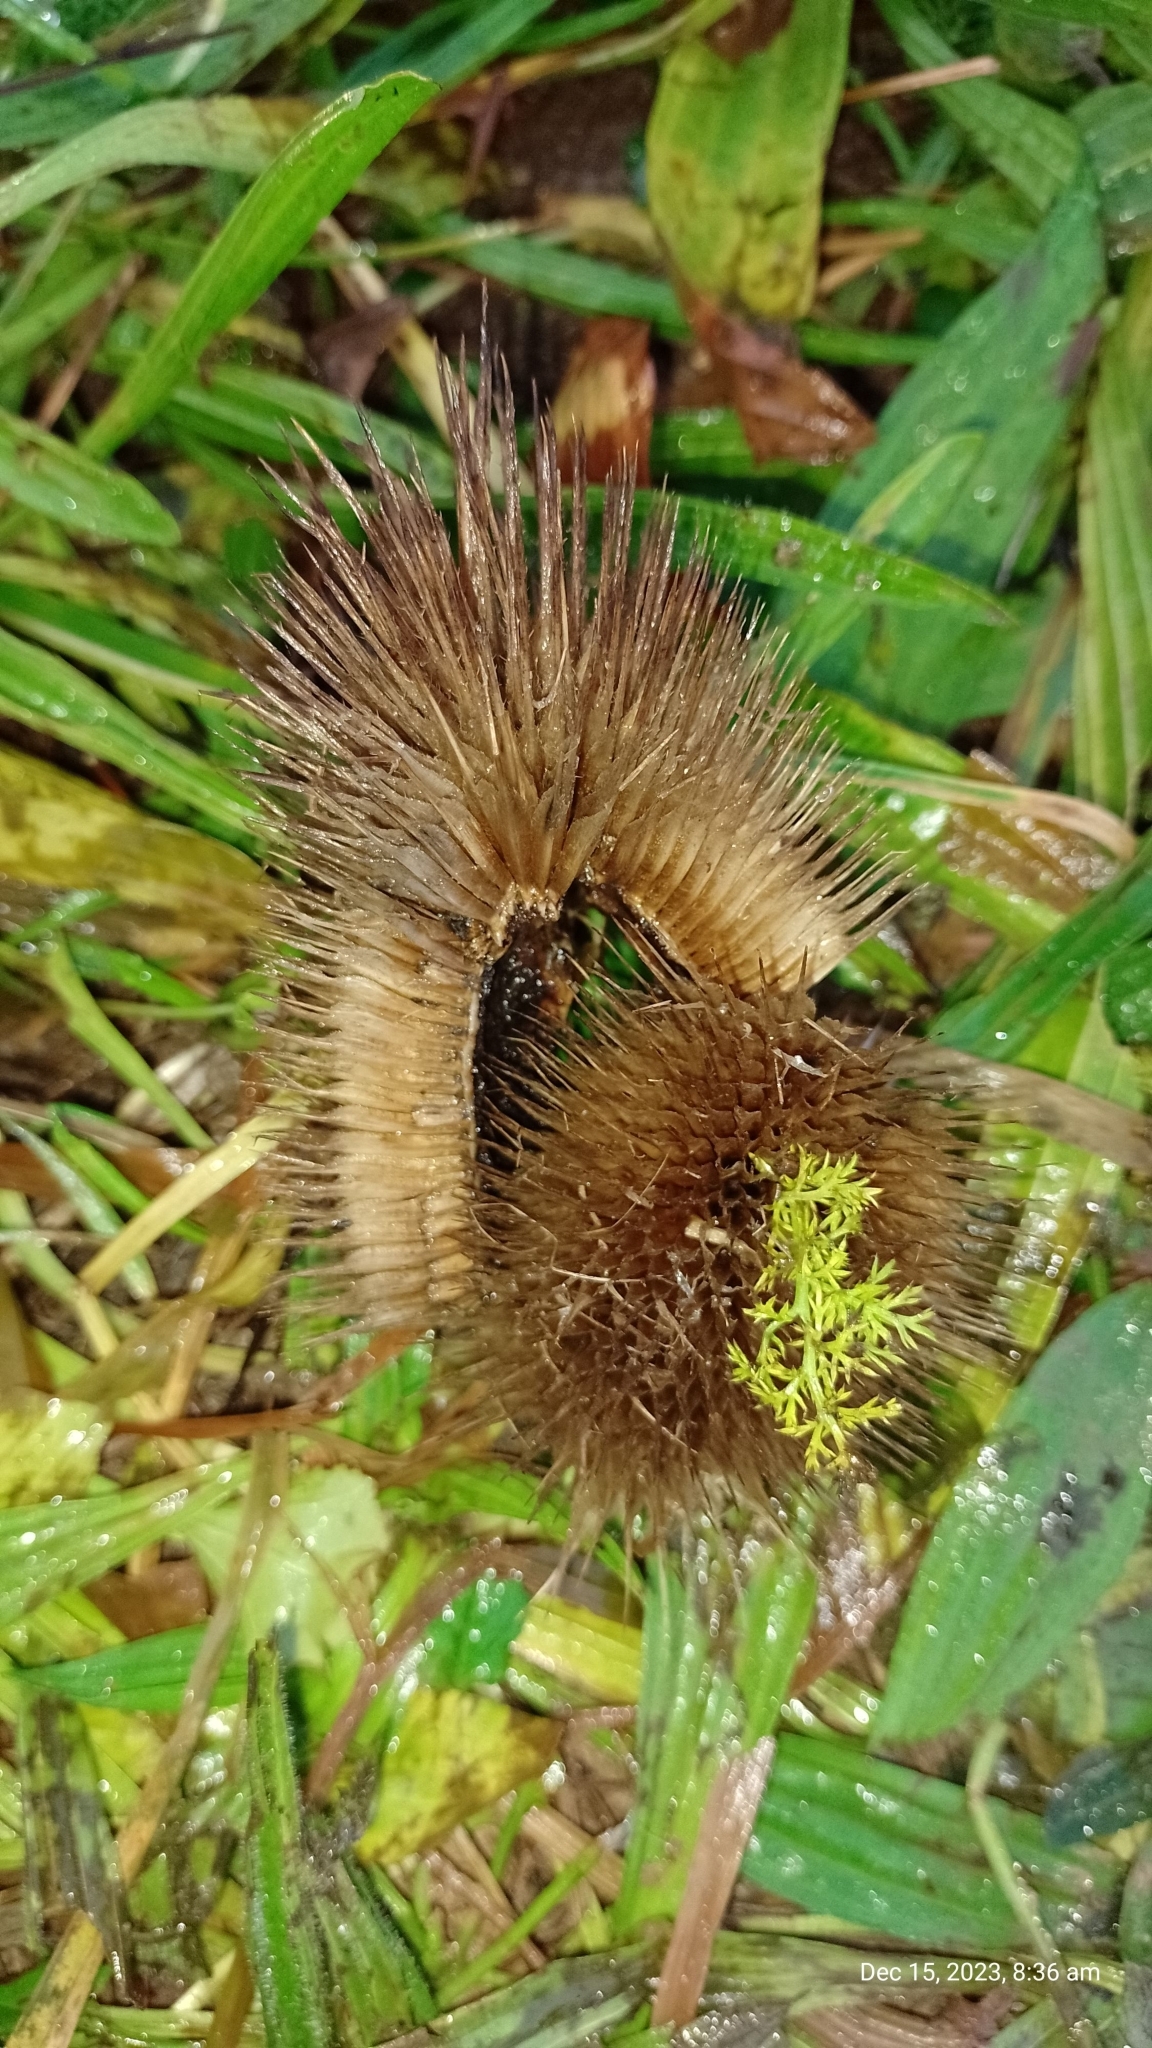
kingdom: Plantae
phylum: Tracheophyta
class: Magnoliopsida
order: Dipsacales
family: Caprifoliaceae
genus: Dipsacus
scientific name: Dipsacus fullonum
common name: Teasel
